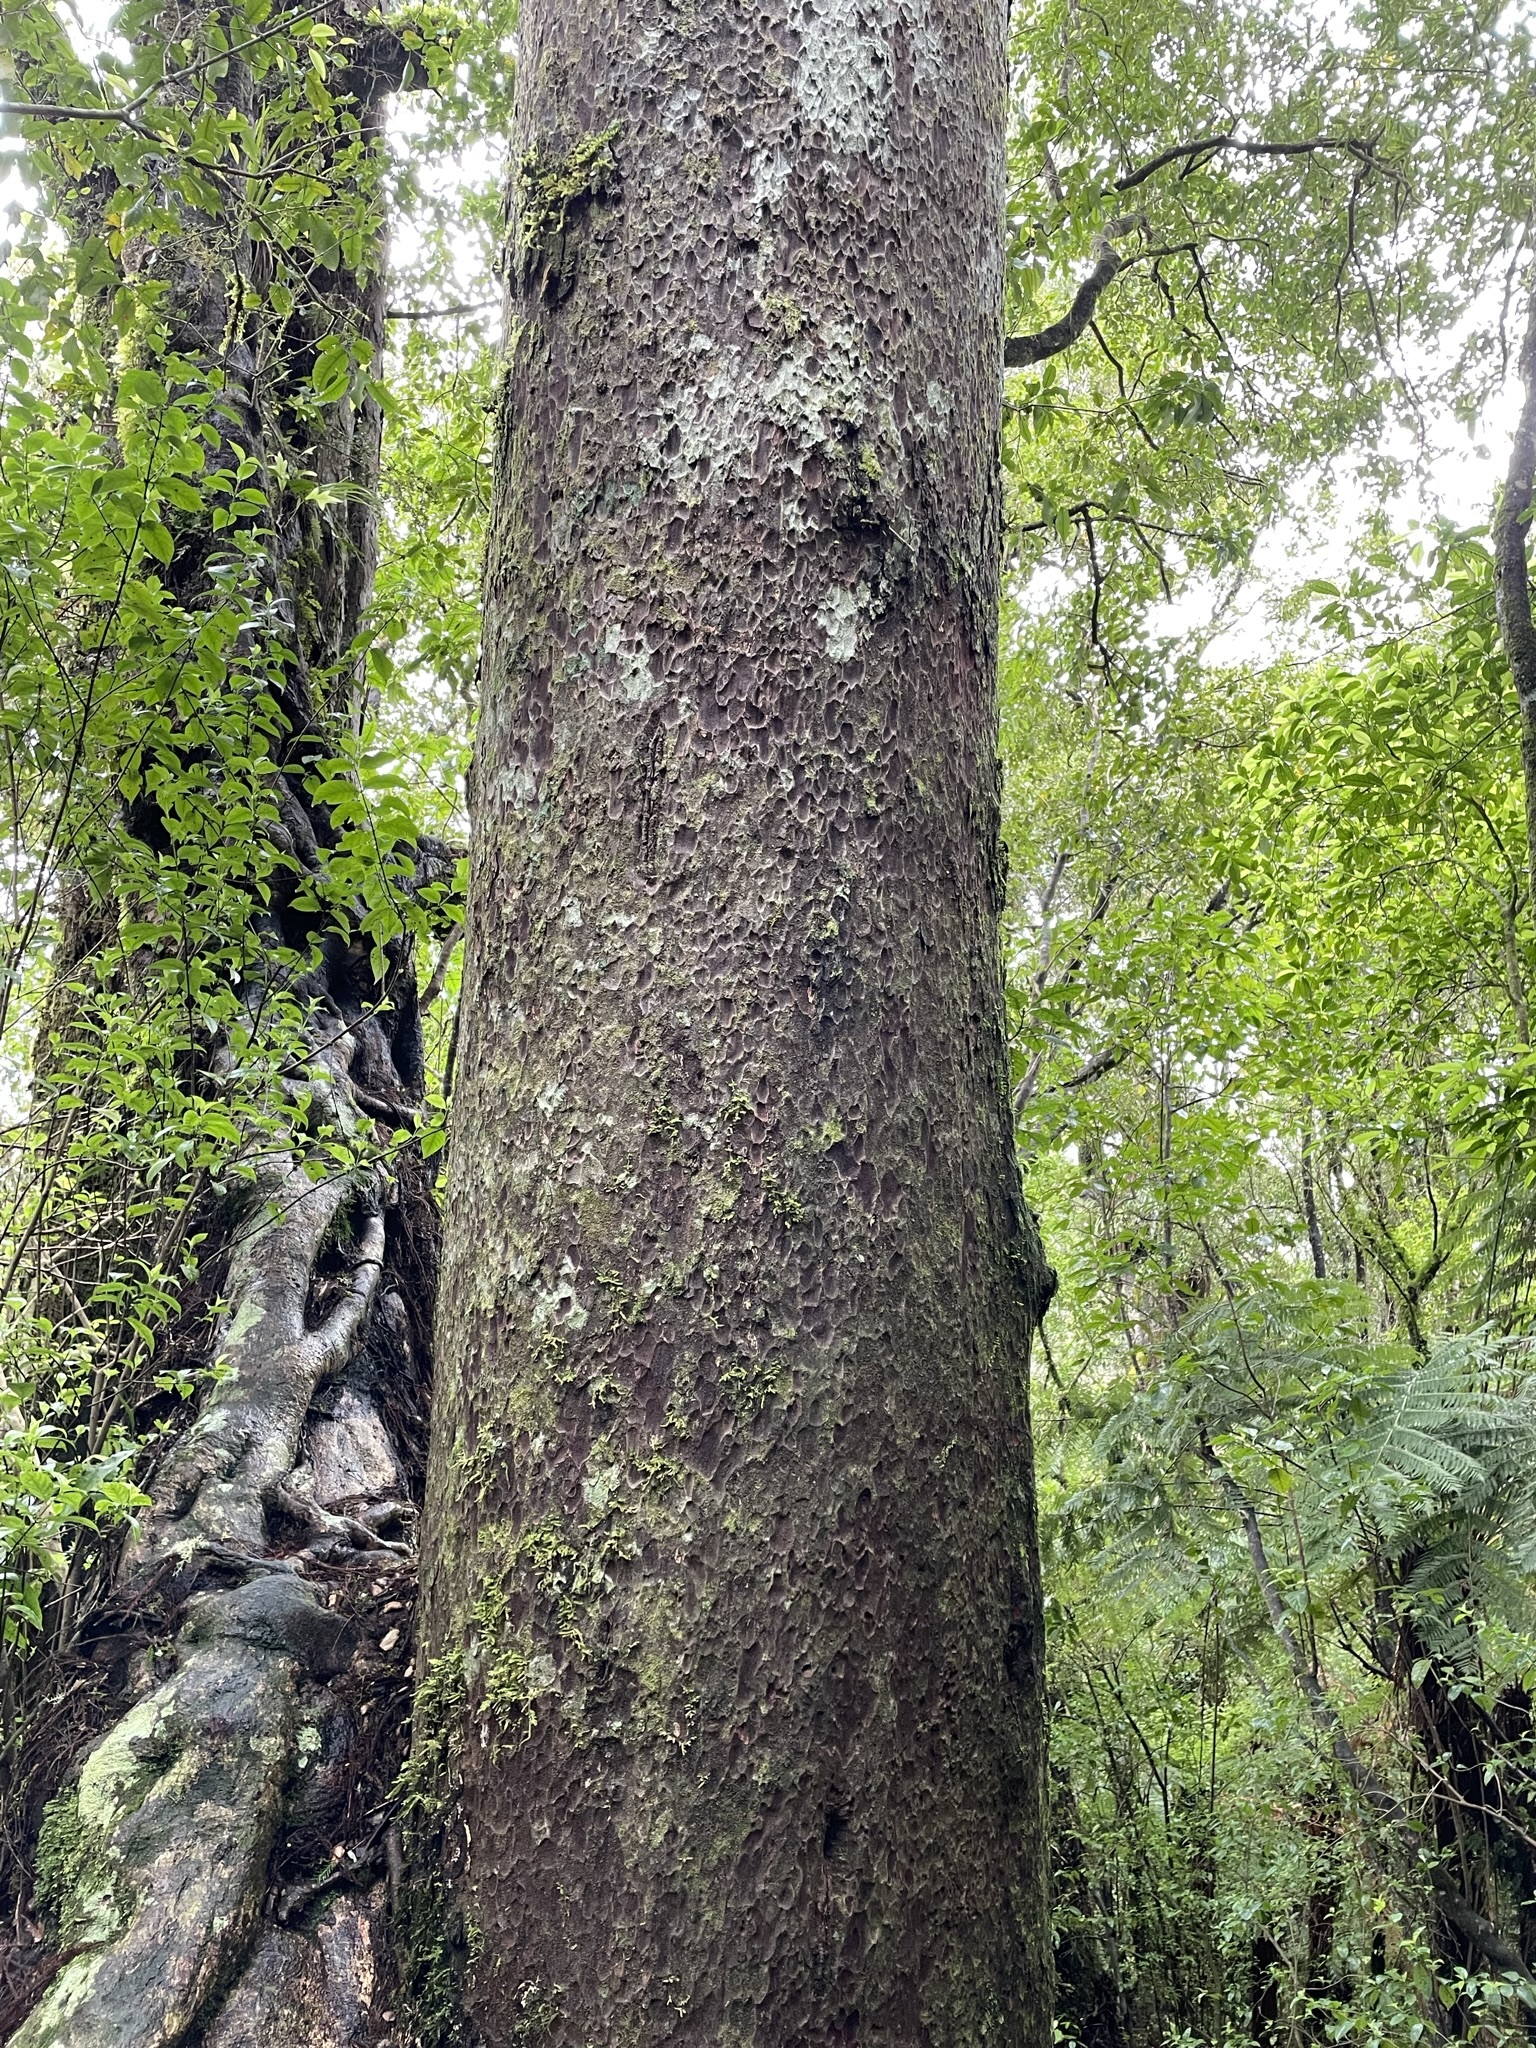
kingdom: Plantae
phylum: Tracheophyta
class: Pinopsida
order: Pinales
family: Podocarpaceae
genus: Prumnopitys
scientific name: Prumnopitys taxifolia
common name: Matai
